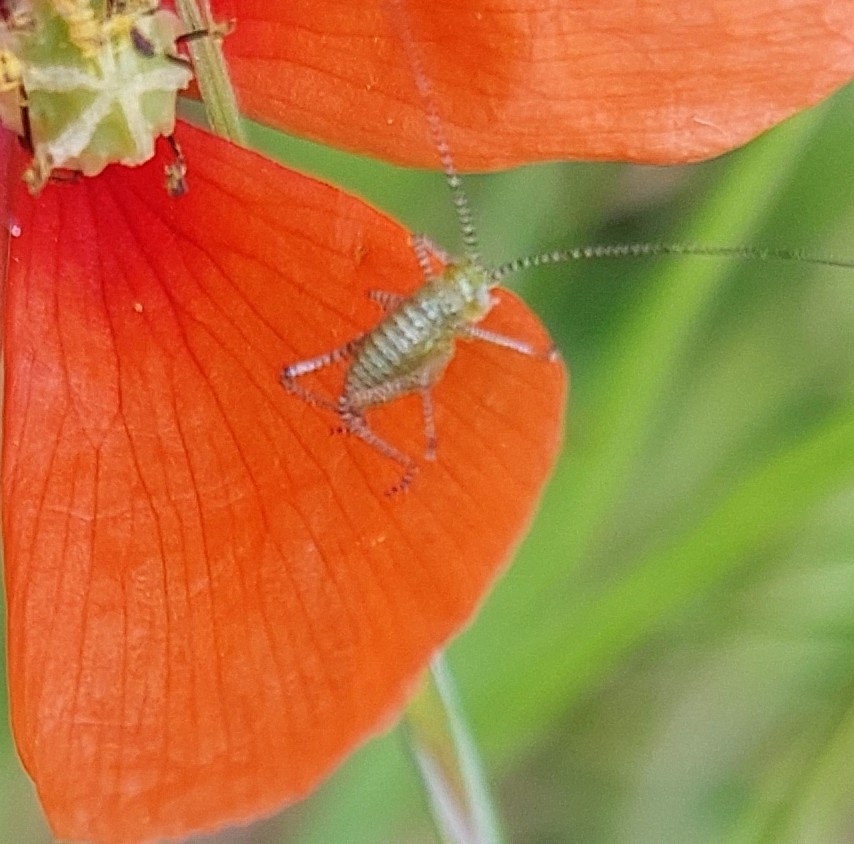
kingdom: Animalia
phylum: Arthropoda
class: Insecta
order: Orthoptera
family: Tettigoniidae
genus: Leptophyes
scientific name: Leptophyes punctatissima
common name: Speckled bush-cricket
